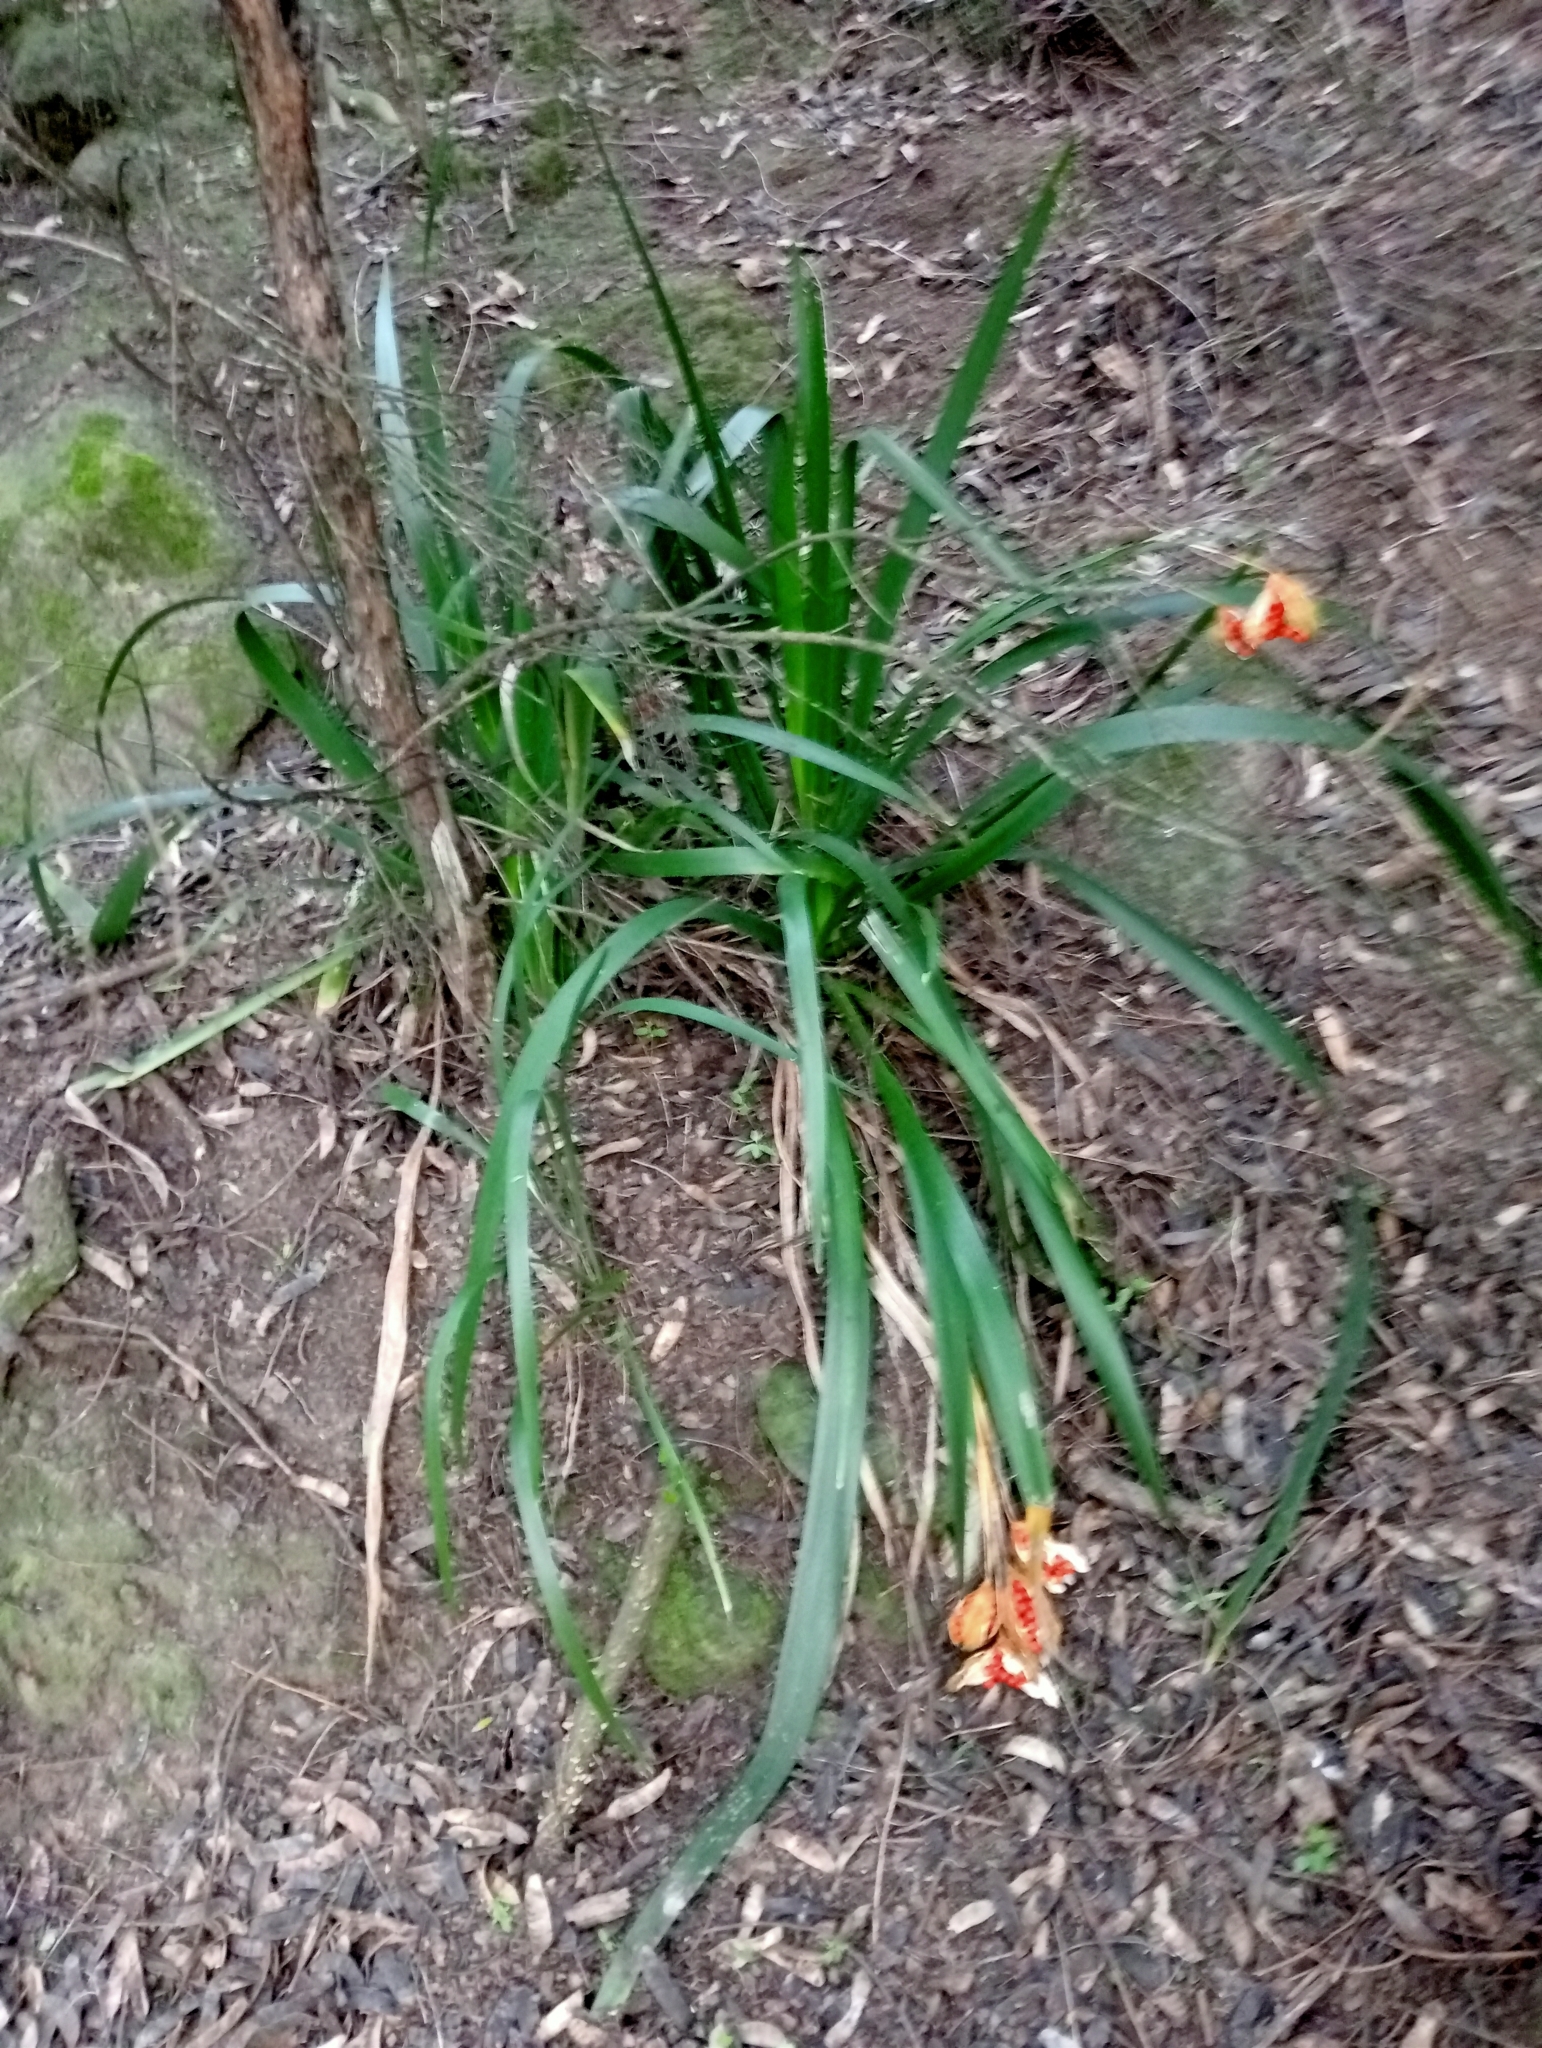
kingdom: Plantae
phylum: Tracheophyta
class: Liliopsida
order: Asparagales
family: Iridaceae
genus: Iris
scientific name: Iris foetidissima
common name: Stinking iris
